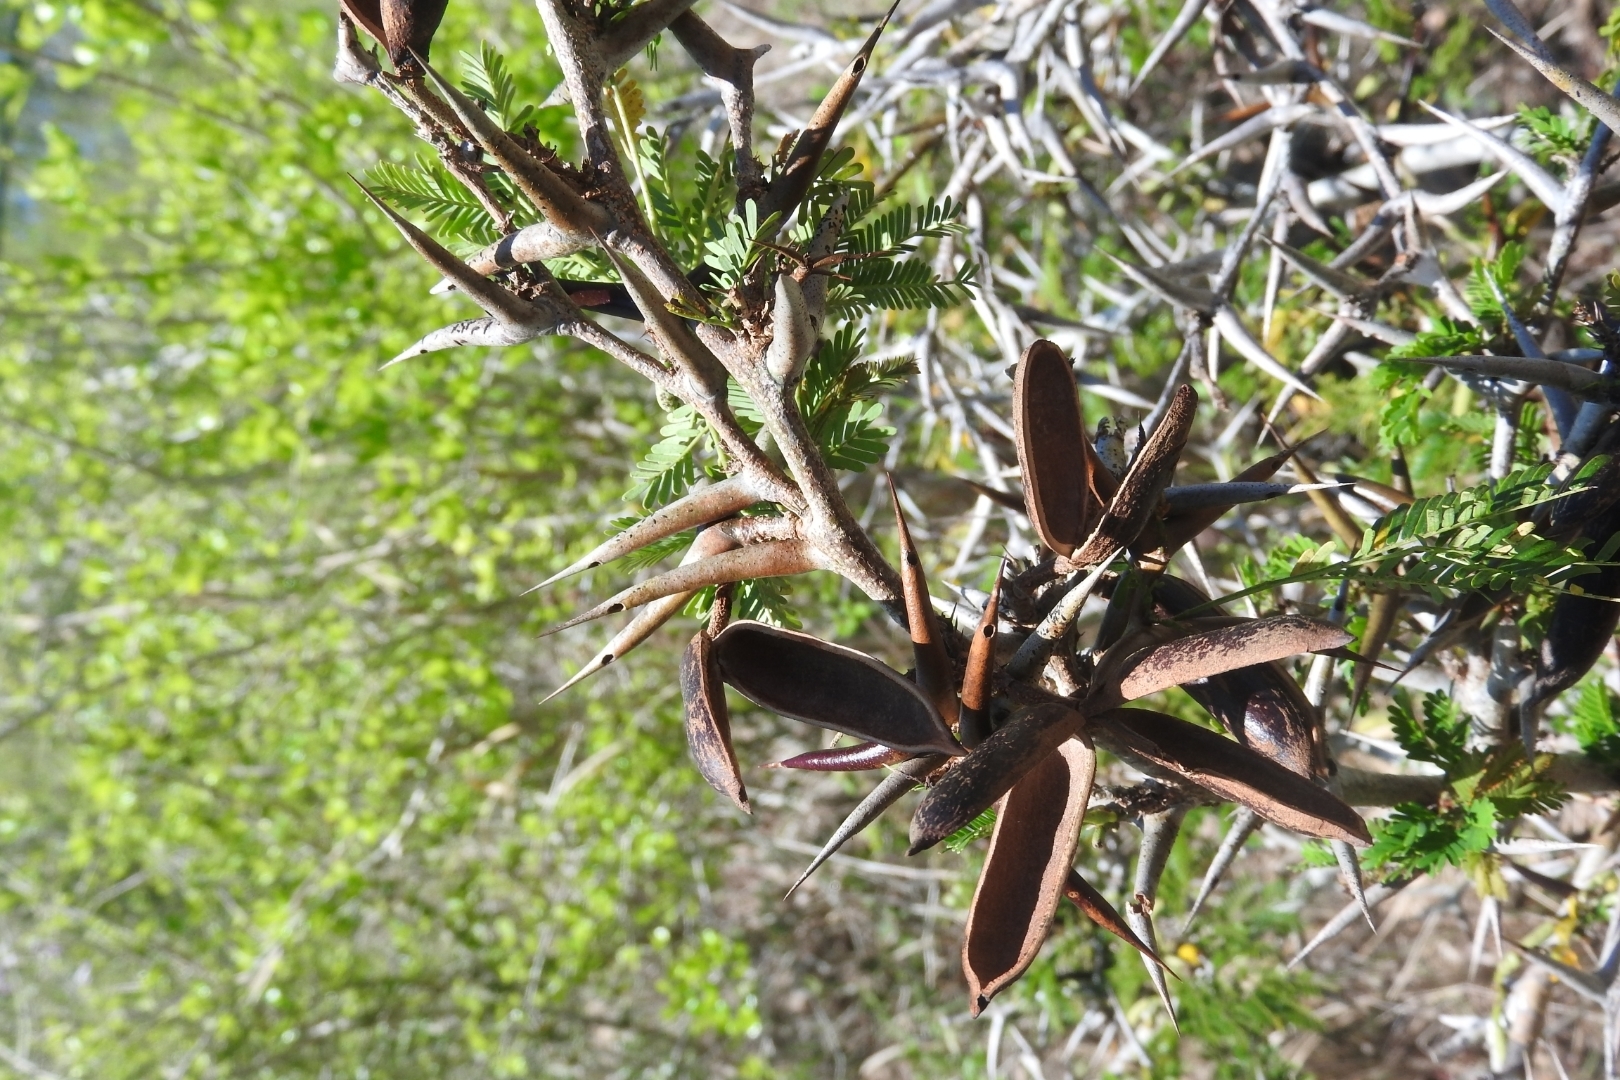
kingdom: Plantae
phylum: Tracheophyta
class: Magnoliopsida
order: Fabales
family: Fabaceae
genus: Vachellia
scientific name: Vachellia cornigera
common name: Bullhorn wattle
